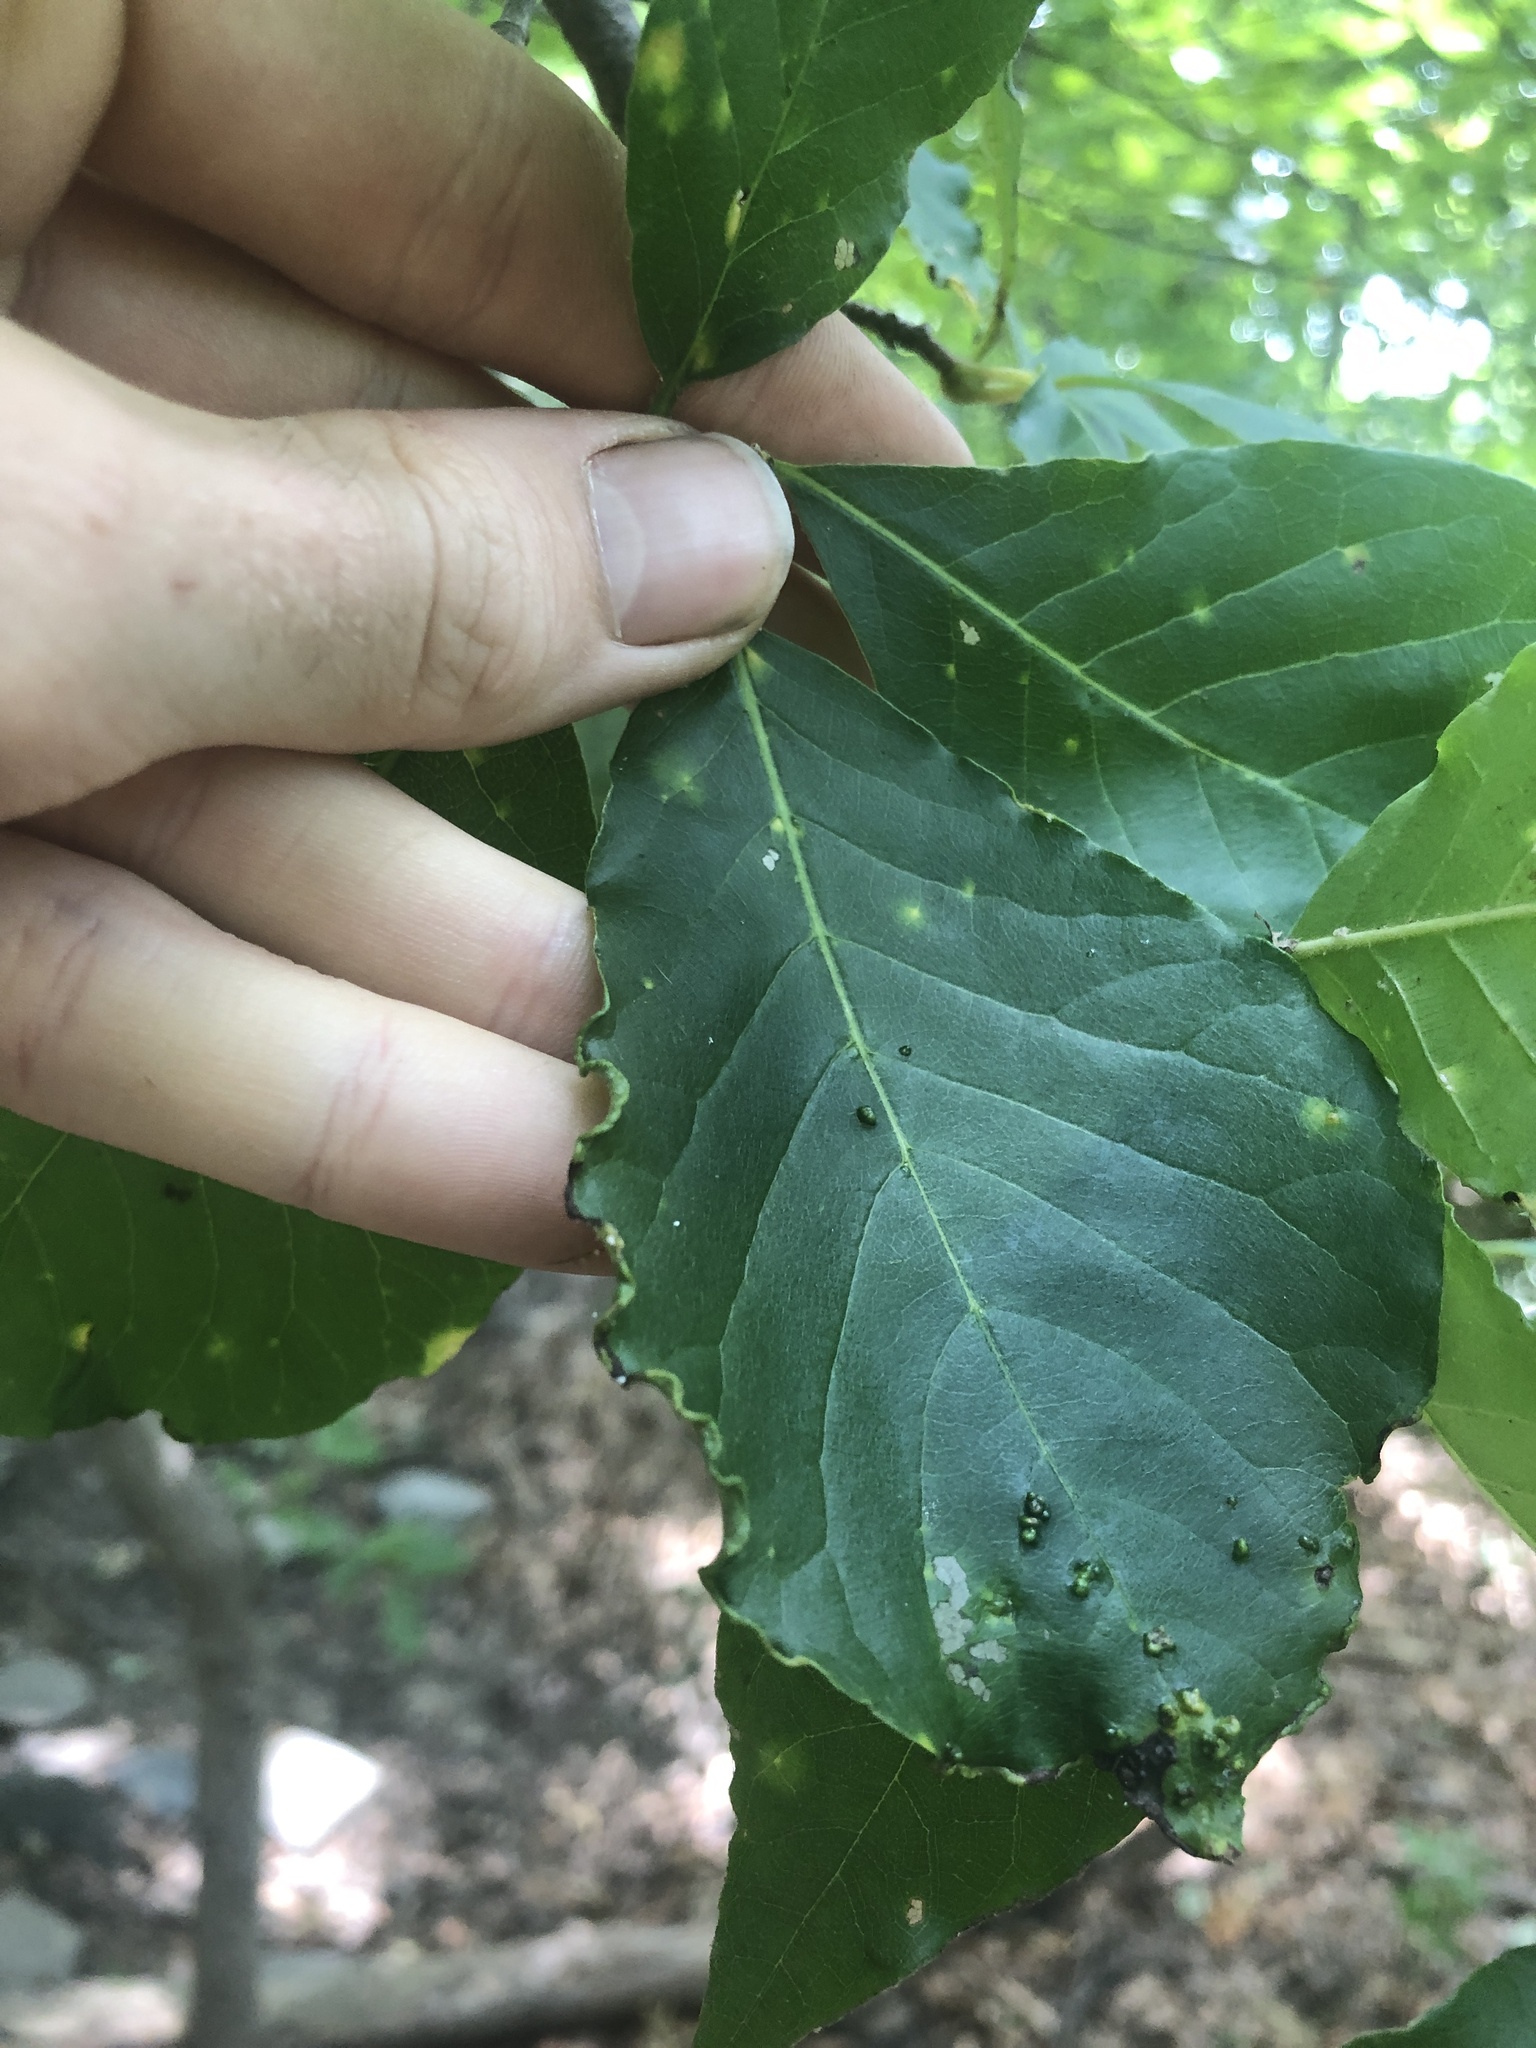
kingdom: Animalia
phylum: Arthropoda
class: Arachnida
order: Trombidiformes
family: Eriophyidae
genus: Aceria
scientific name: Aceria
